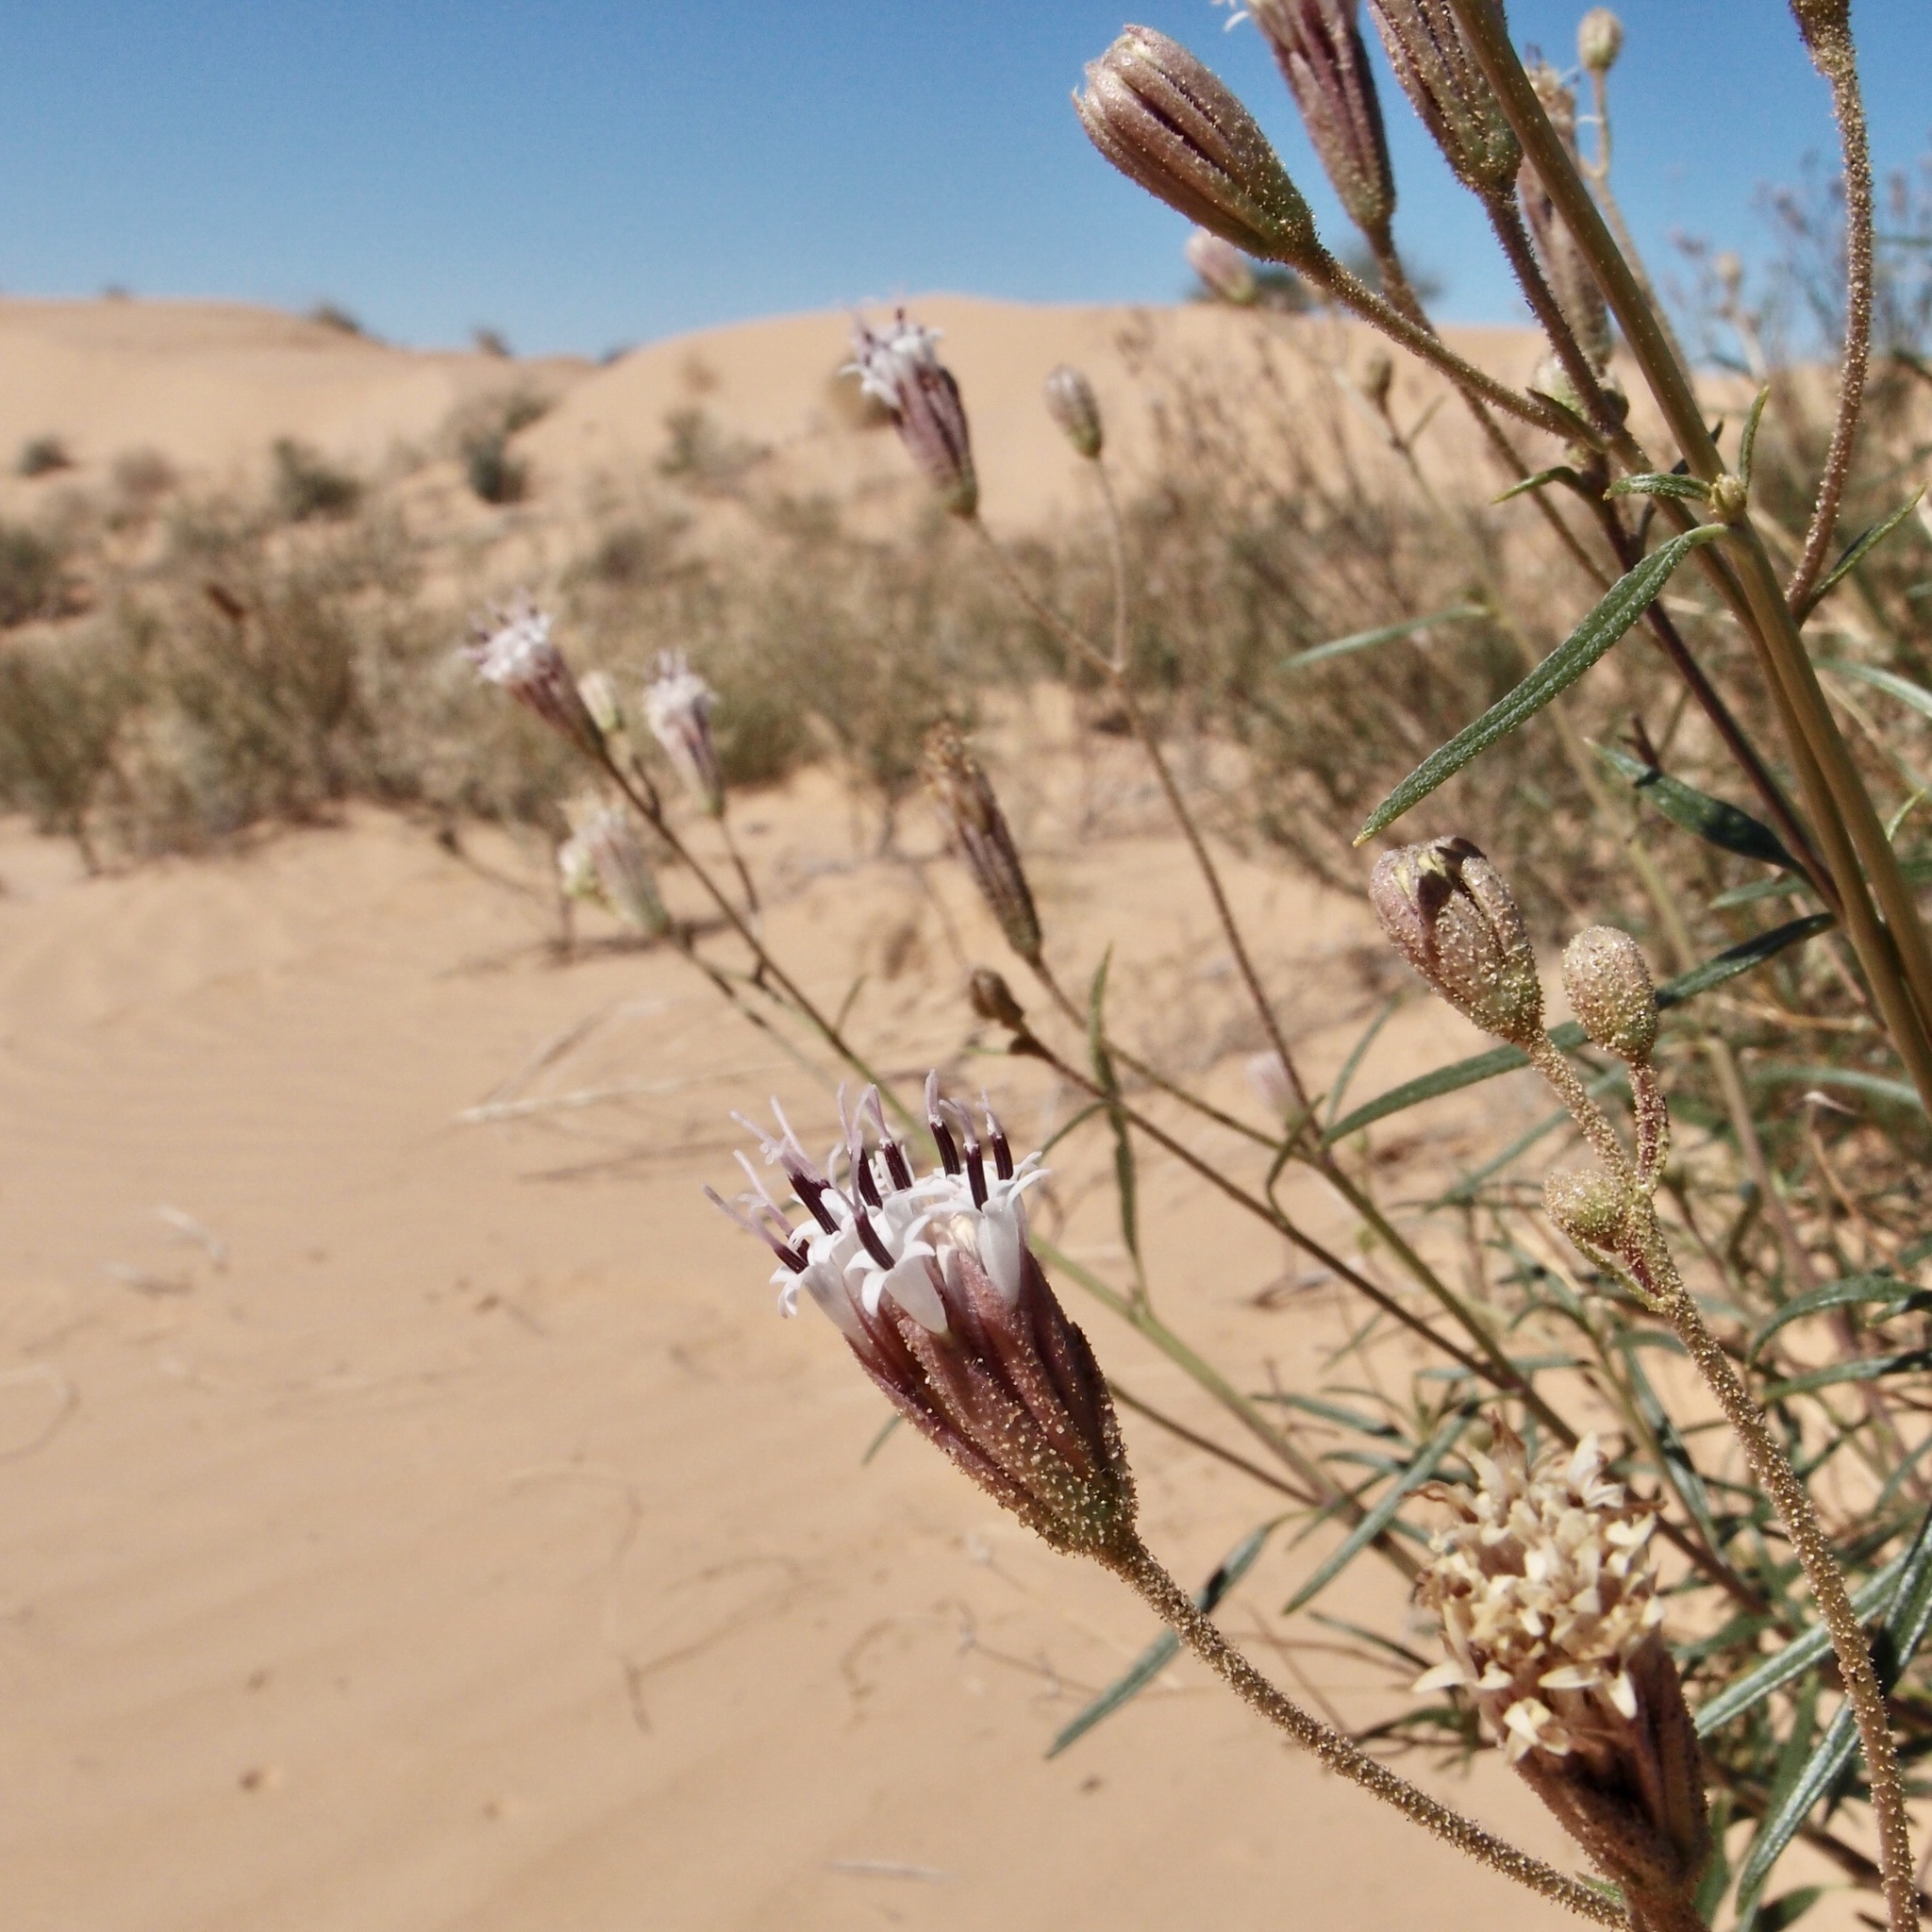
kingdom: Plantae
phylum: Tracheophyta
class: Magnoliopsida
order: Asterales
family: Asteraceae
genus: Palafoxia
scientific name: Palafoxia arida
